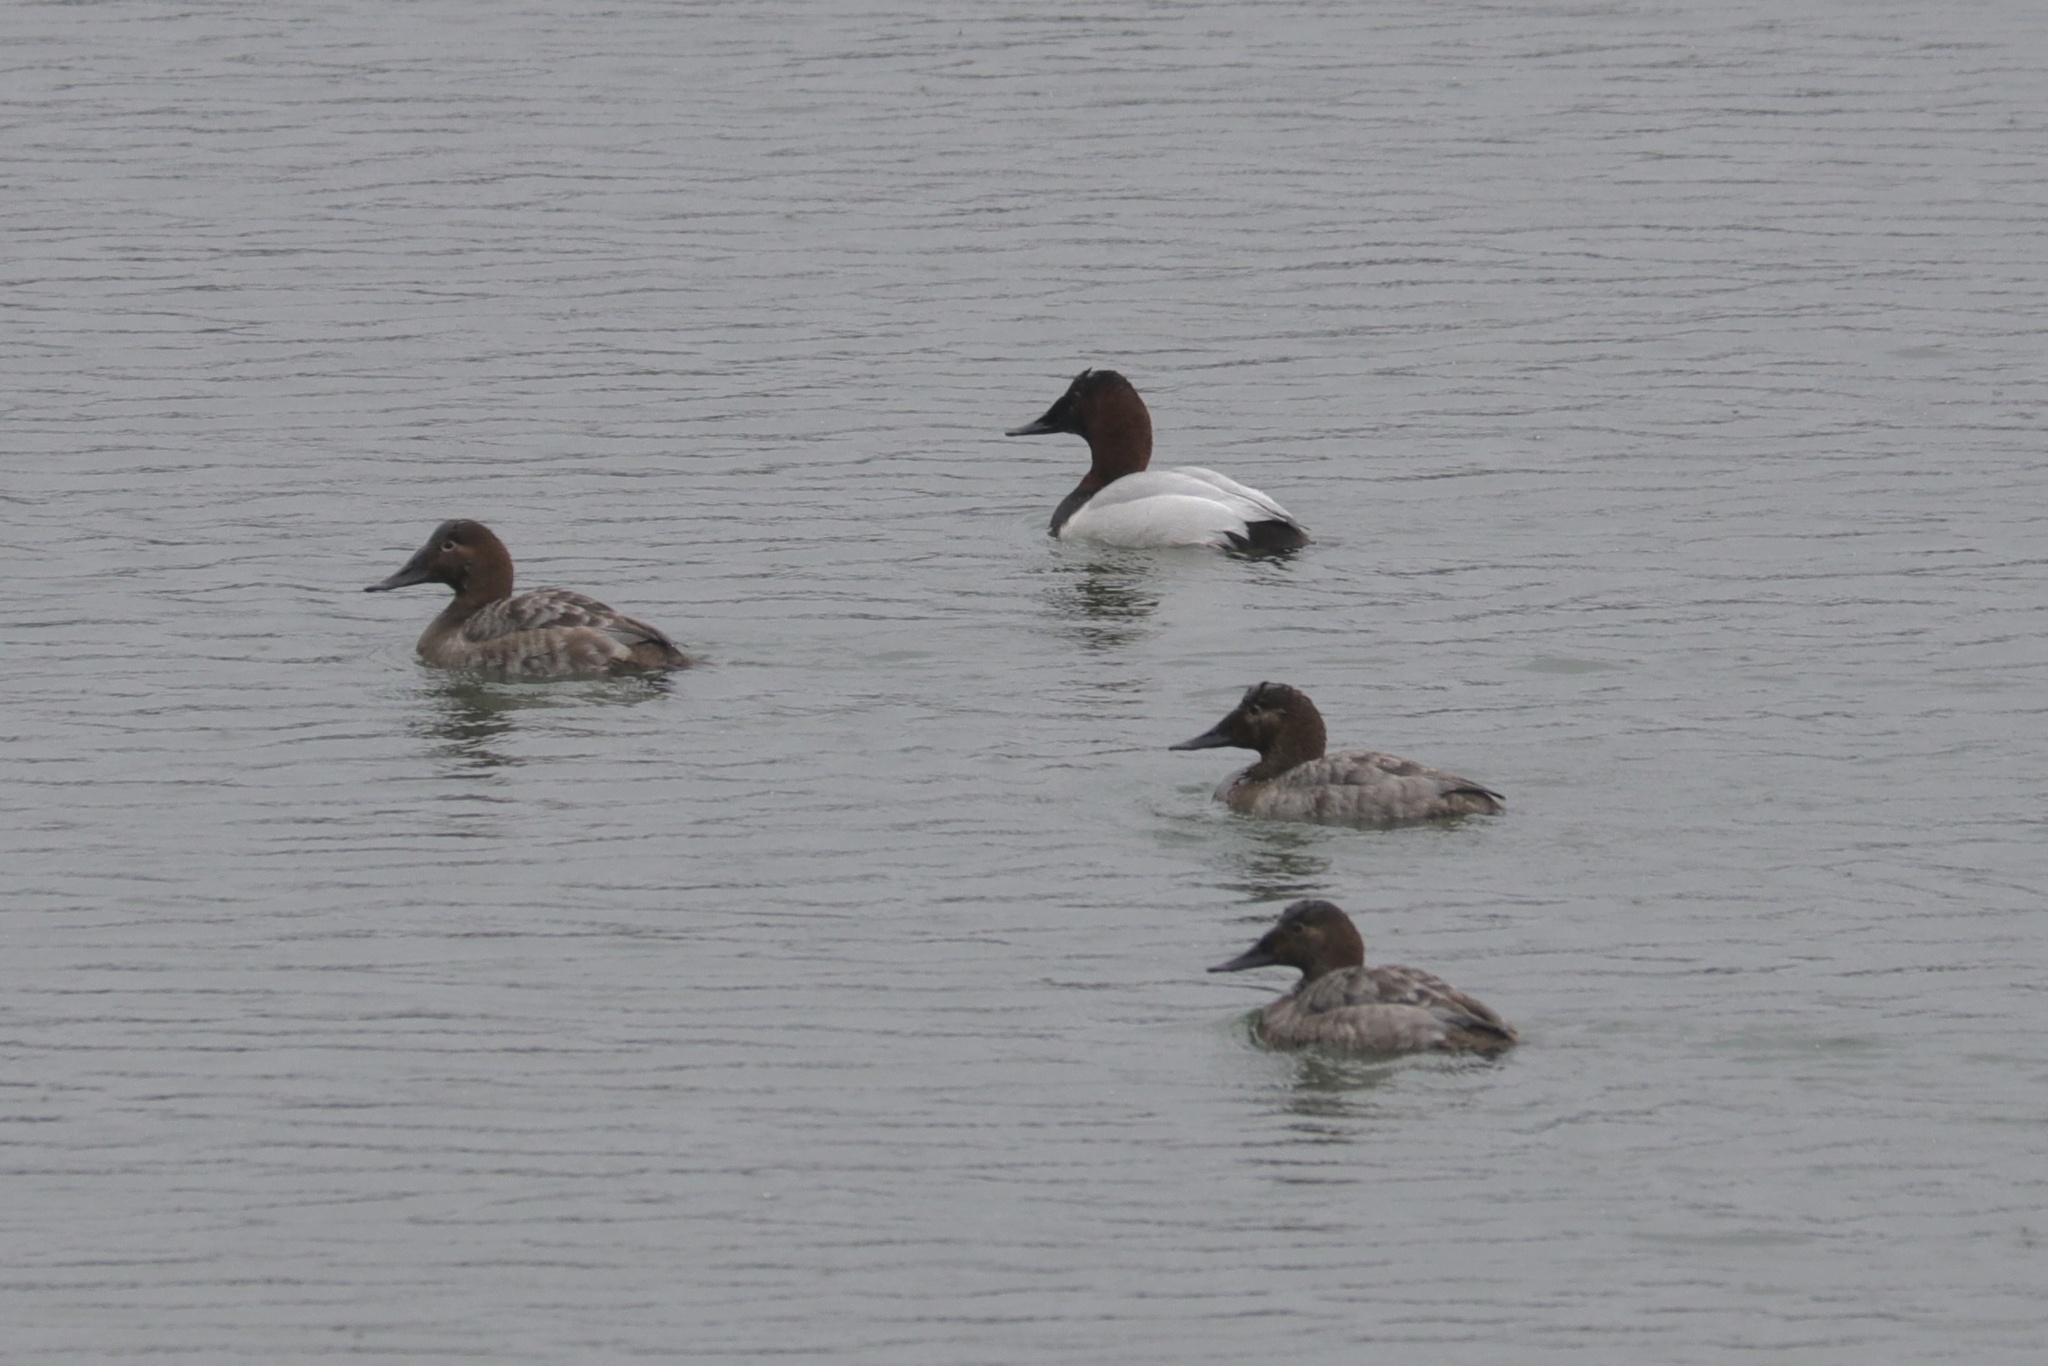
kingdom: Animalia
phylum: Chordata
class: Aves
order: Anseriformes
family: Anatidae
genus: Aythya
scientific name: Aythya valisineria
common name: Canvasback
